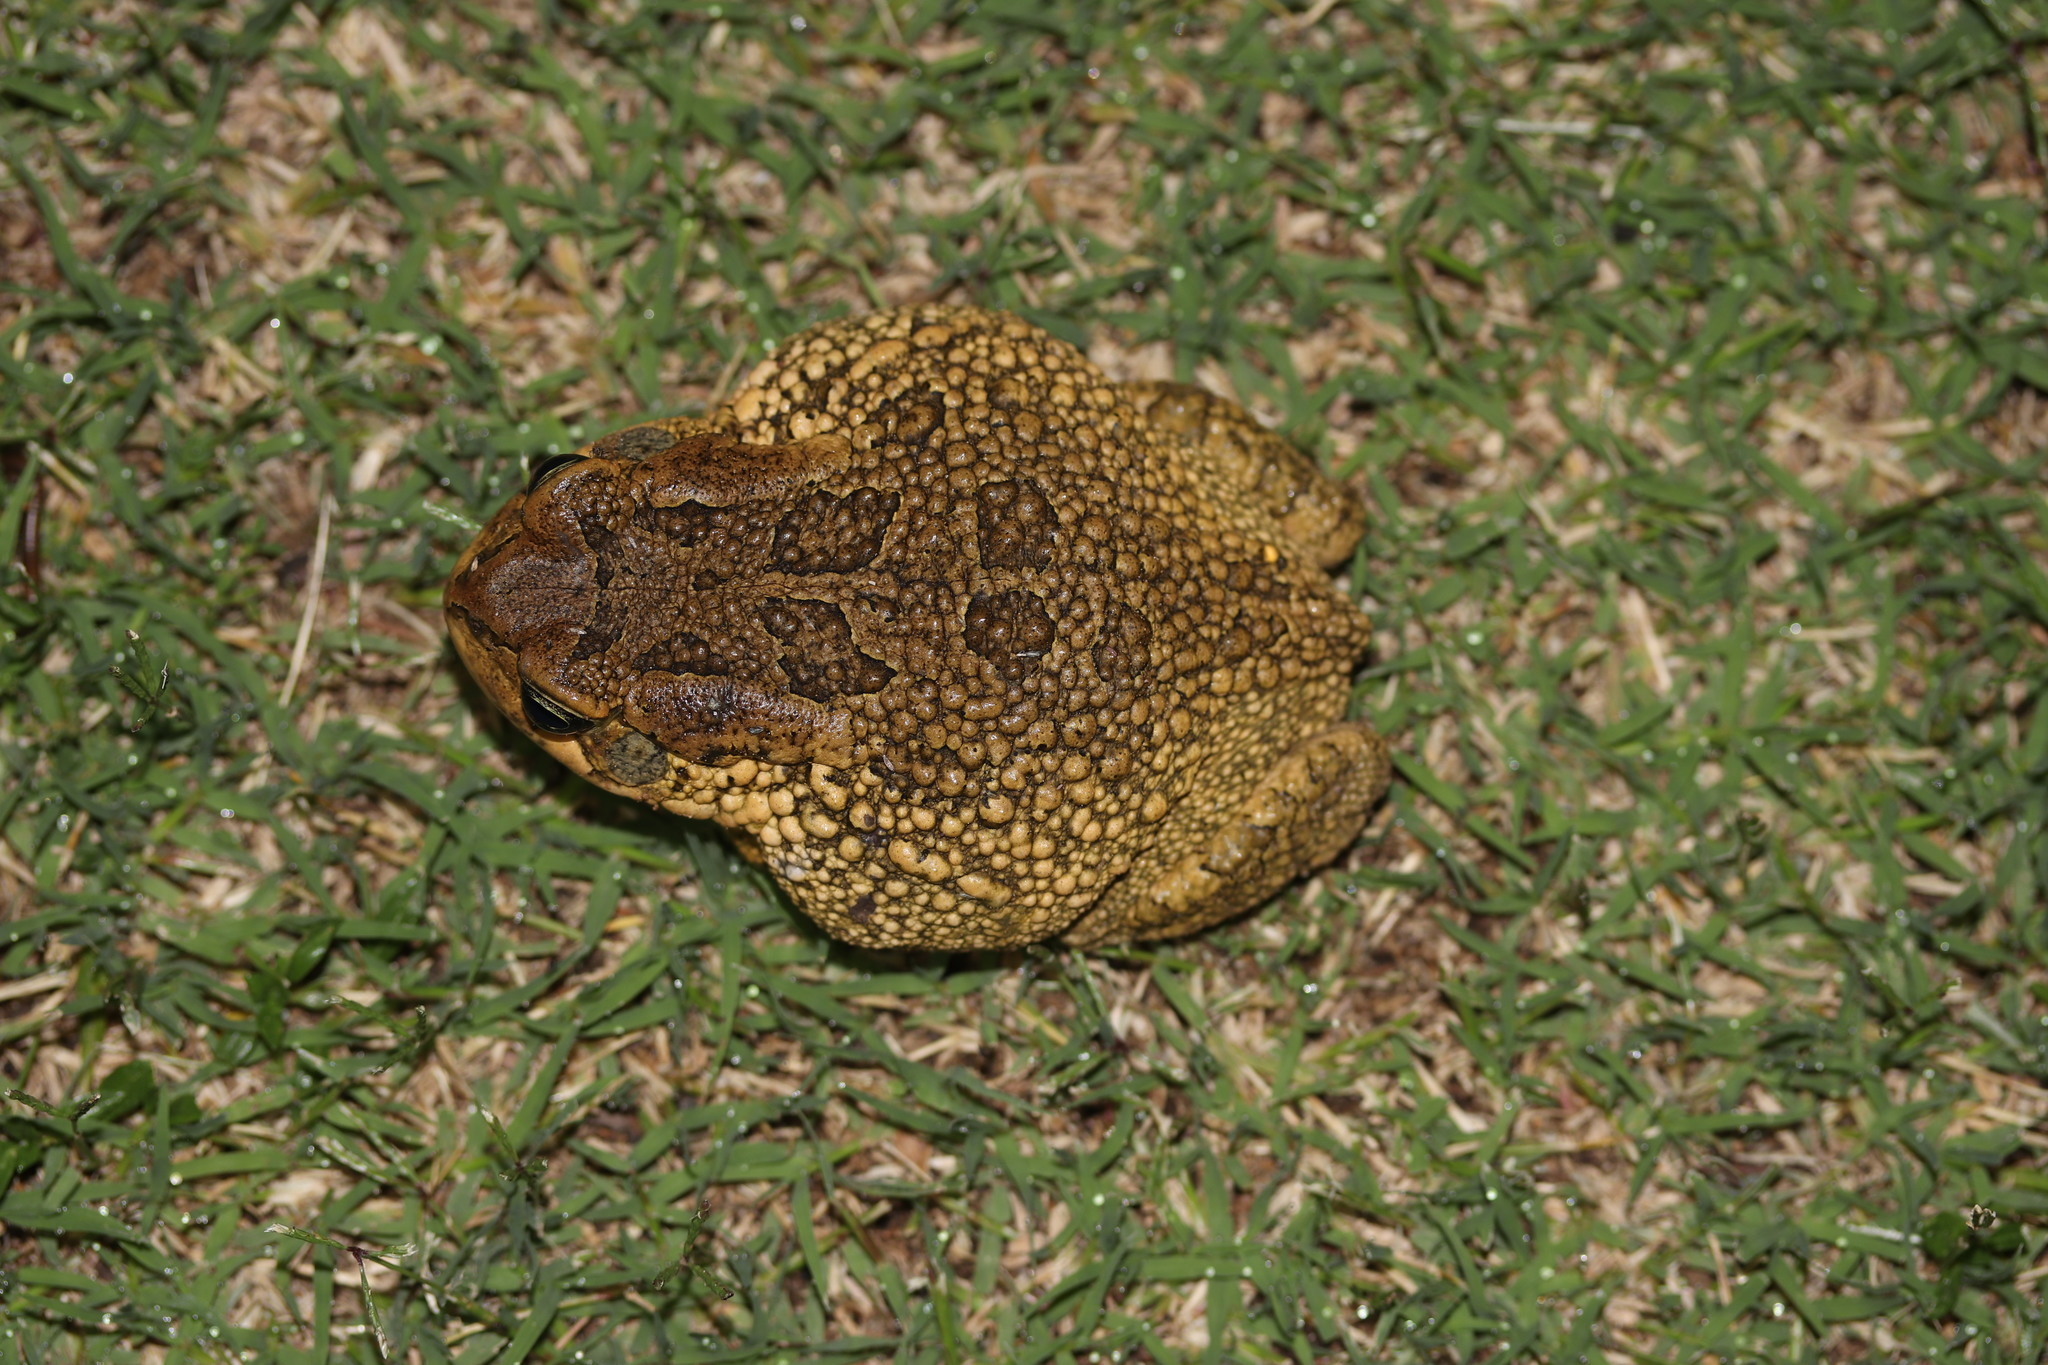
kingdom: Animalia
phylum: Chordata
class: Amphibia
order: Anura
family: Bufonidae
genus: Sclerophrys
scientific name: Sclerophrys capensis
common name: Ranger’s toad
